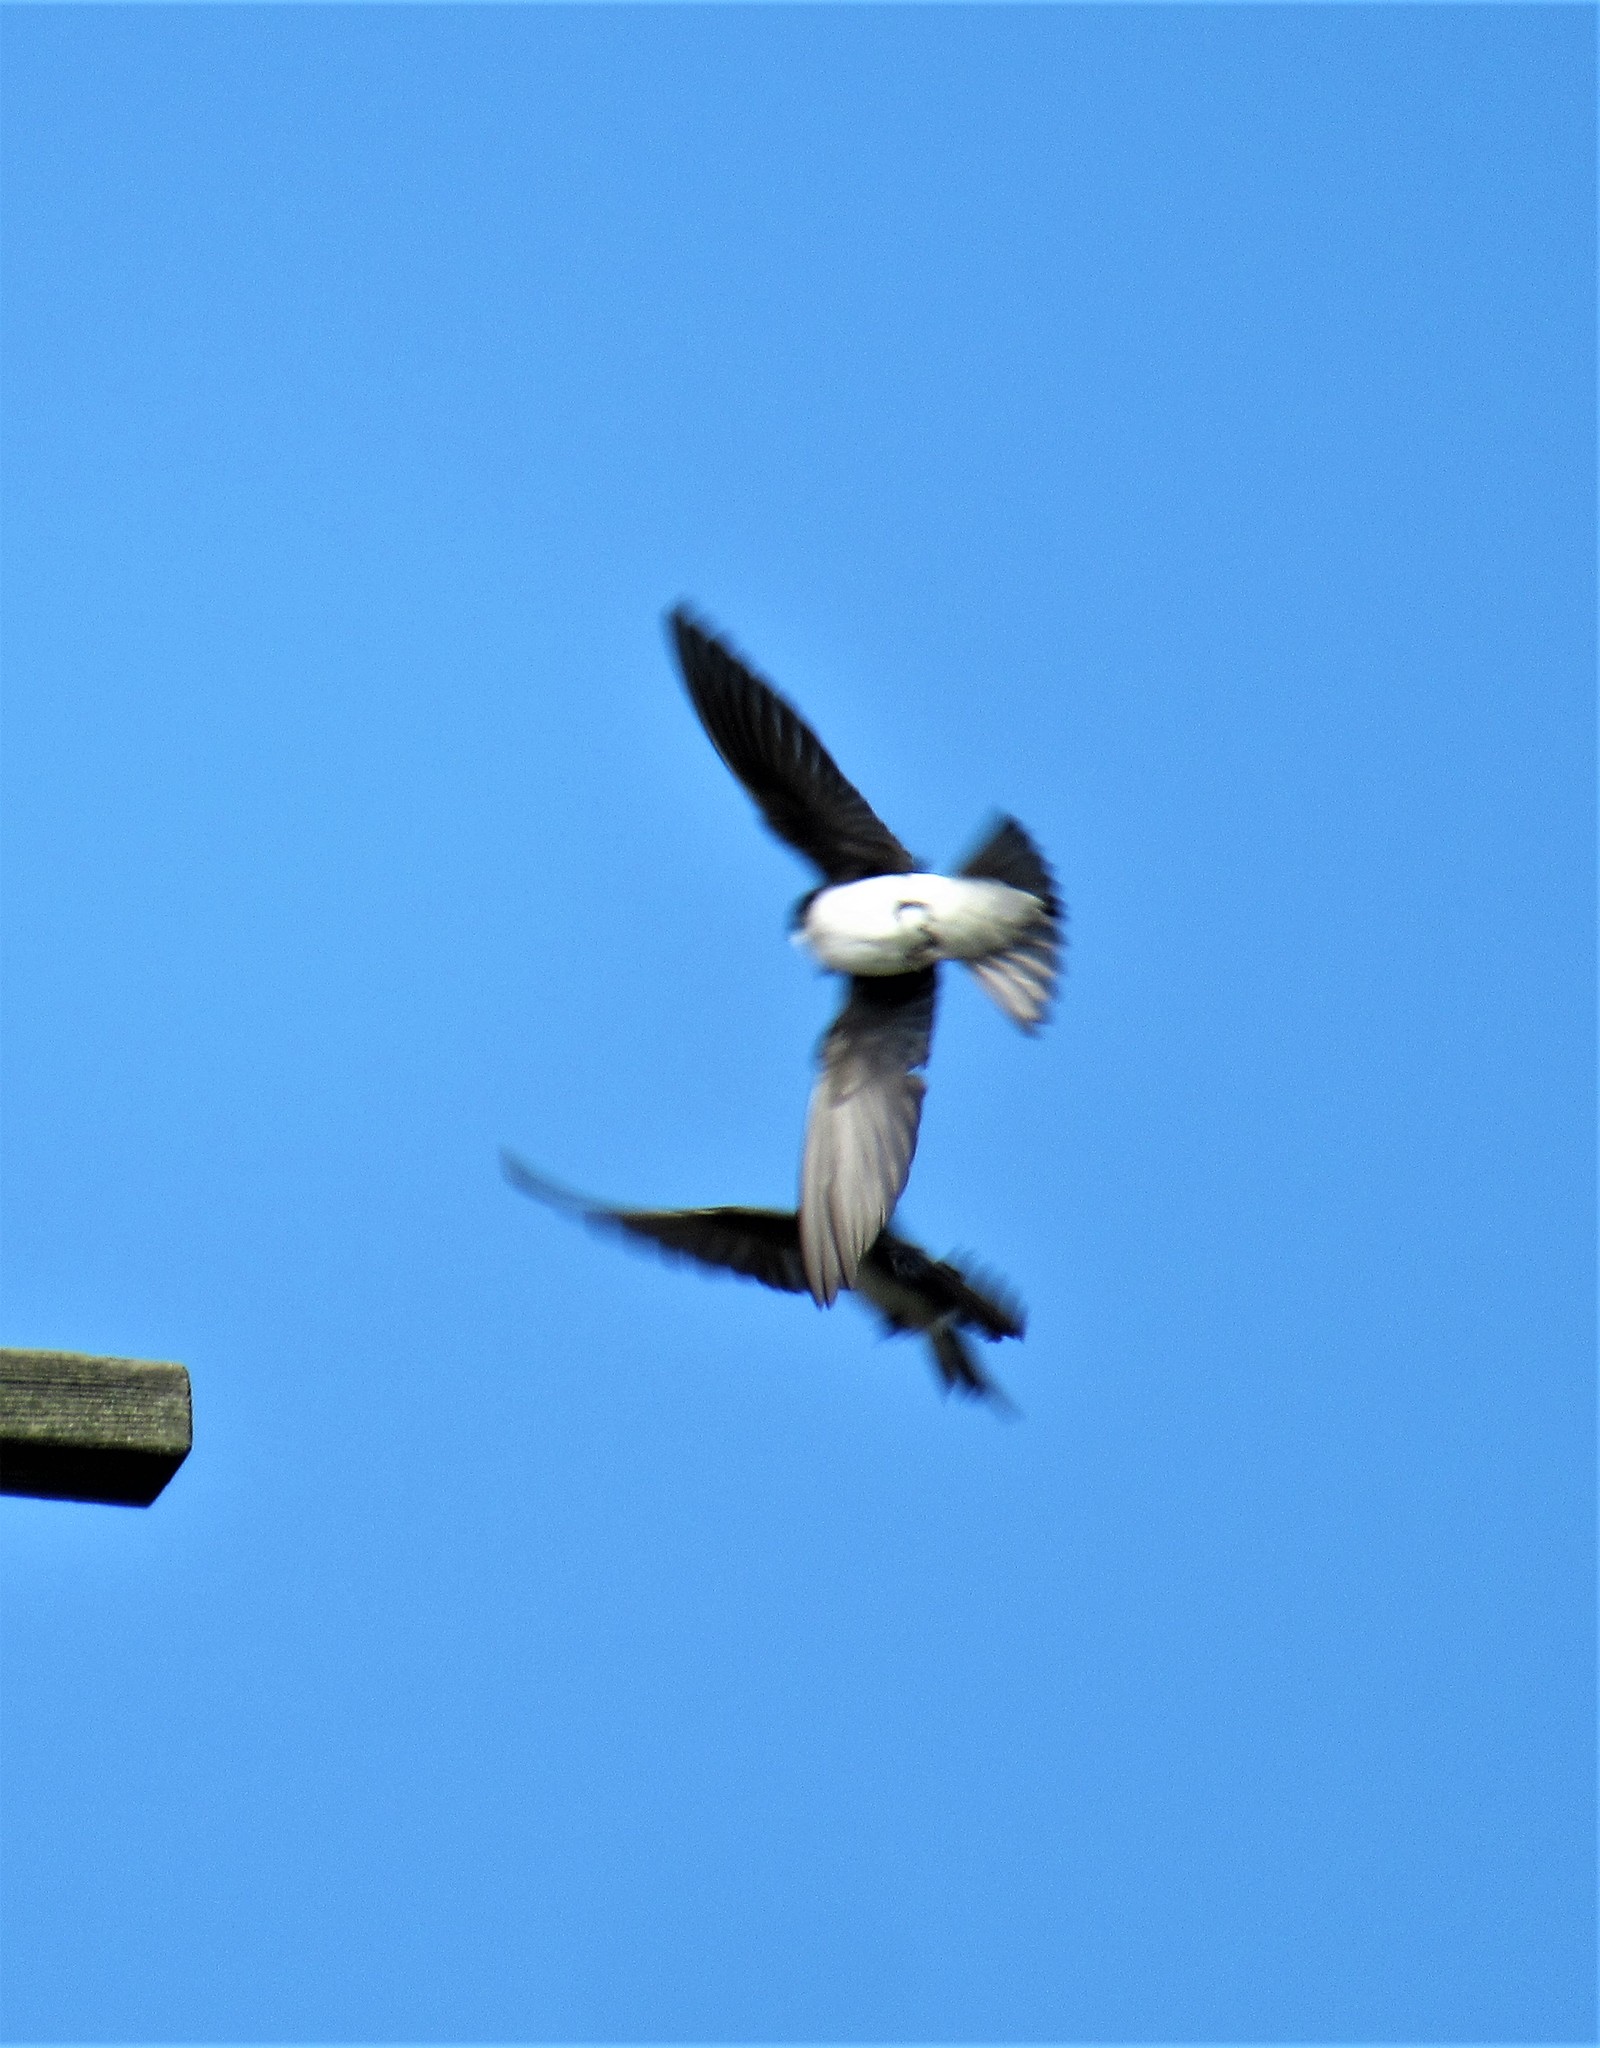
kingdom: Animalia
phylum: Chordata
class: Aves
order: Passeriformes
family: Hirundinidae
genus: Tachycineta
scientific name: Tachycineta bicolor
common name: Tree swallow
